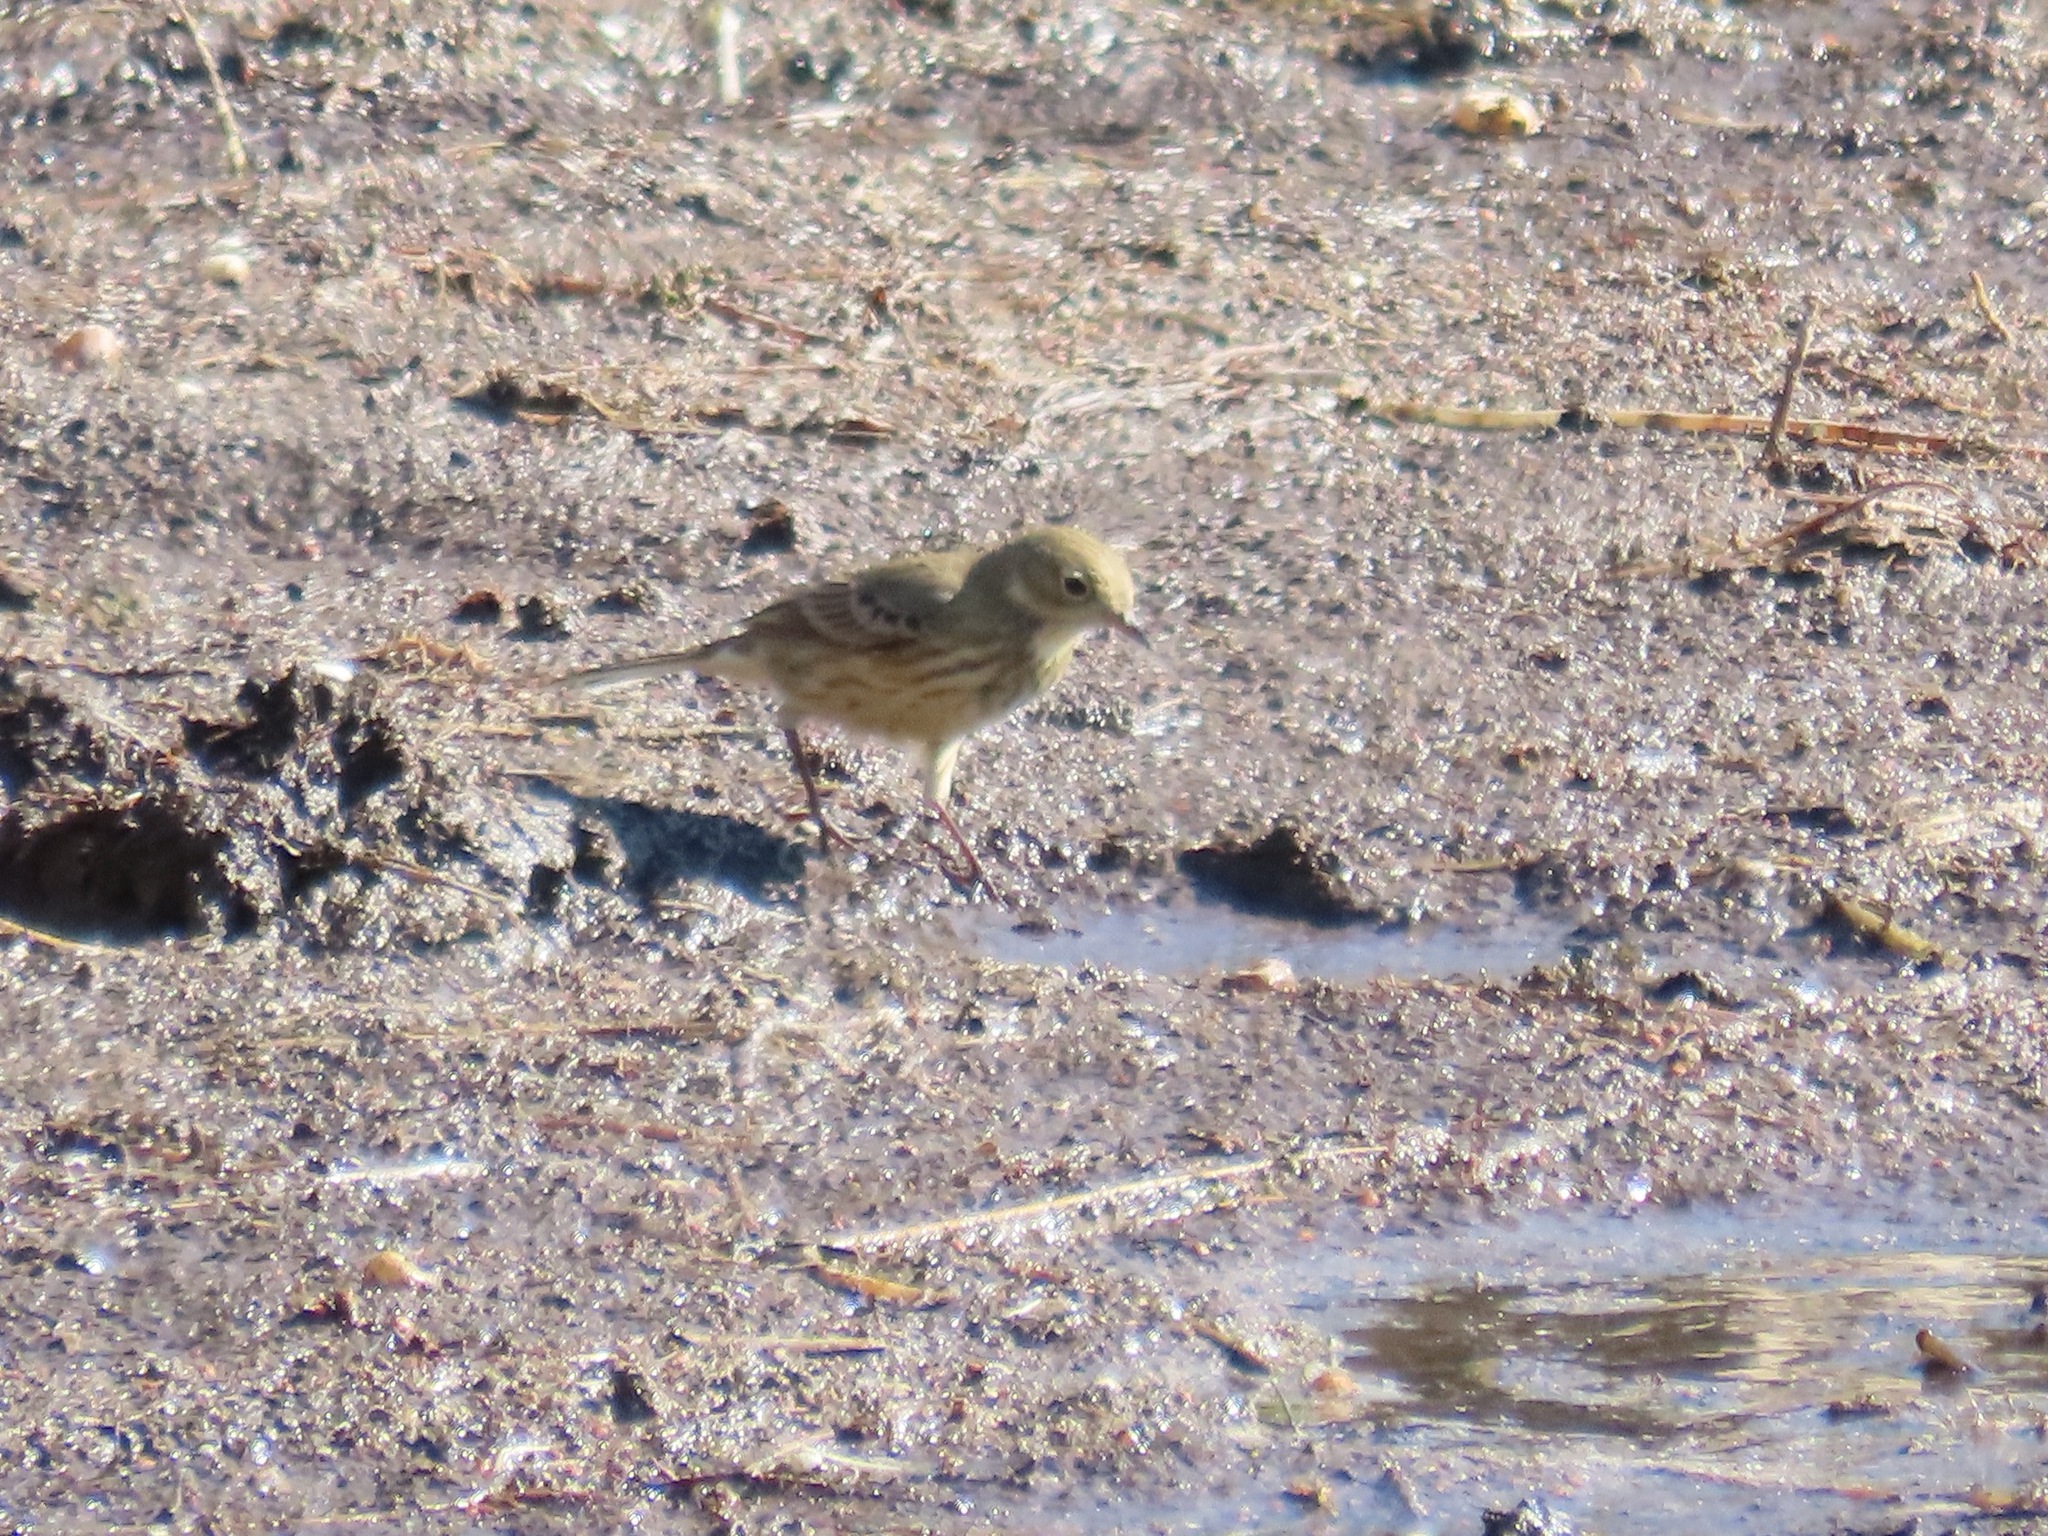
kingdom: Animalia
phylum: Chordata
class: Aves
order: Passeriformes
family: Motacillidae
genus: Anthus
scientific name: Anthus rubescens
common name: Buff-bellied pipit
